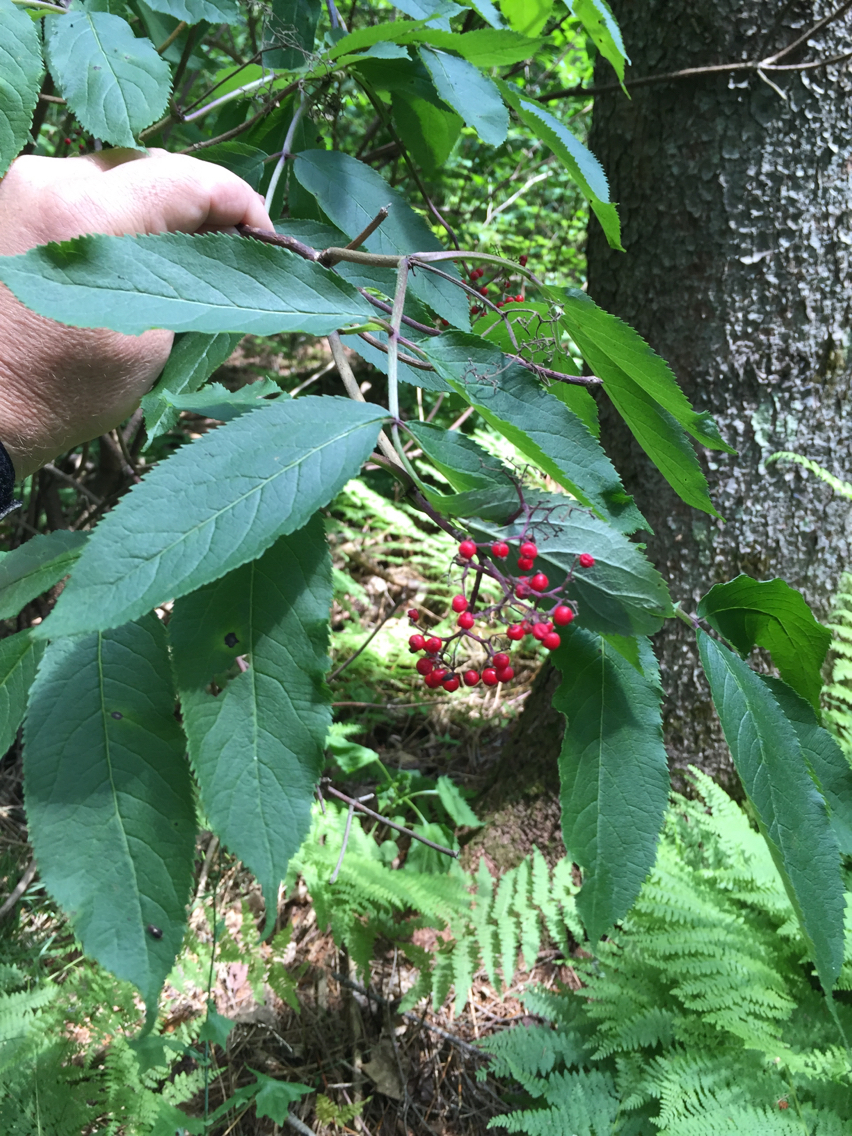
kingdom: Plantae
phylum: Tracheophyta
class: Magnoliopsida
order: Dipsacales
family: Viburnaceae
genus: Sambucus
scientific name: Sambucus racemosa
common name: Red-berried elder
